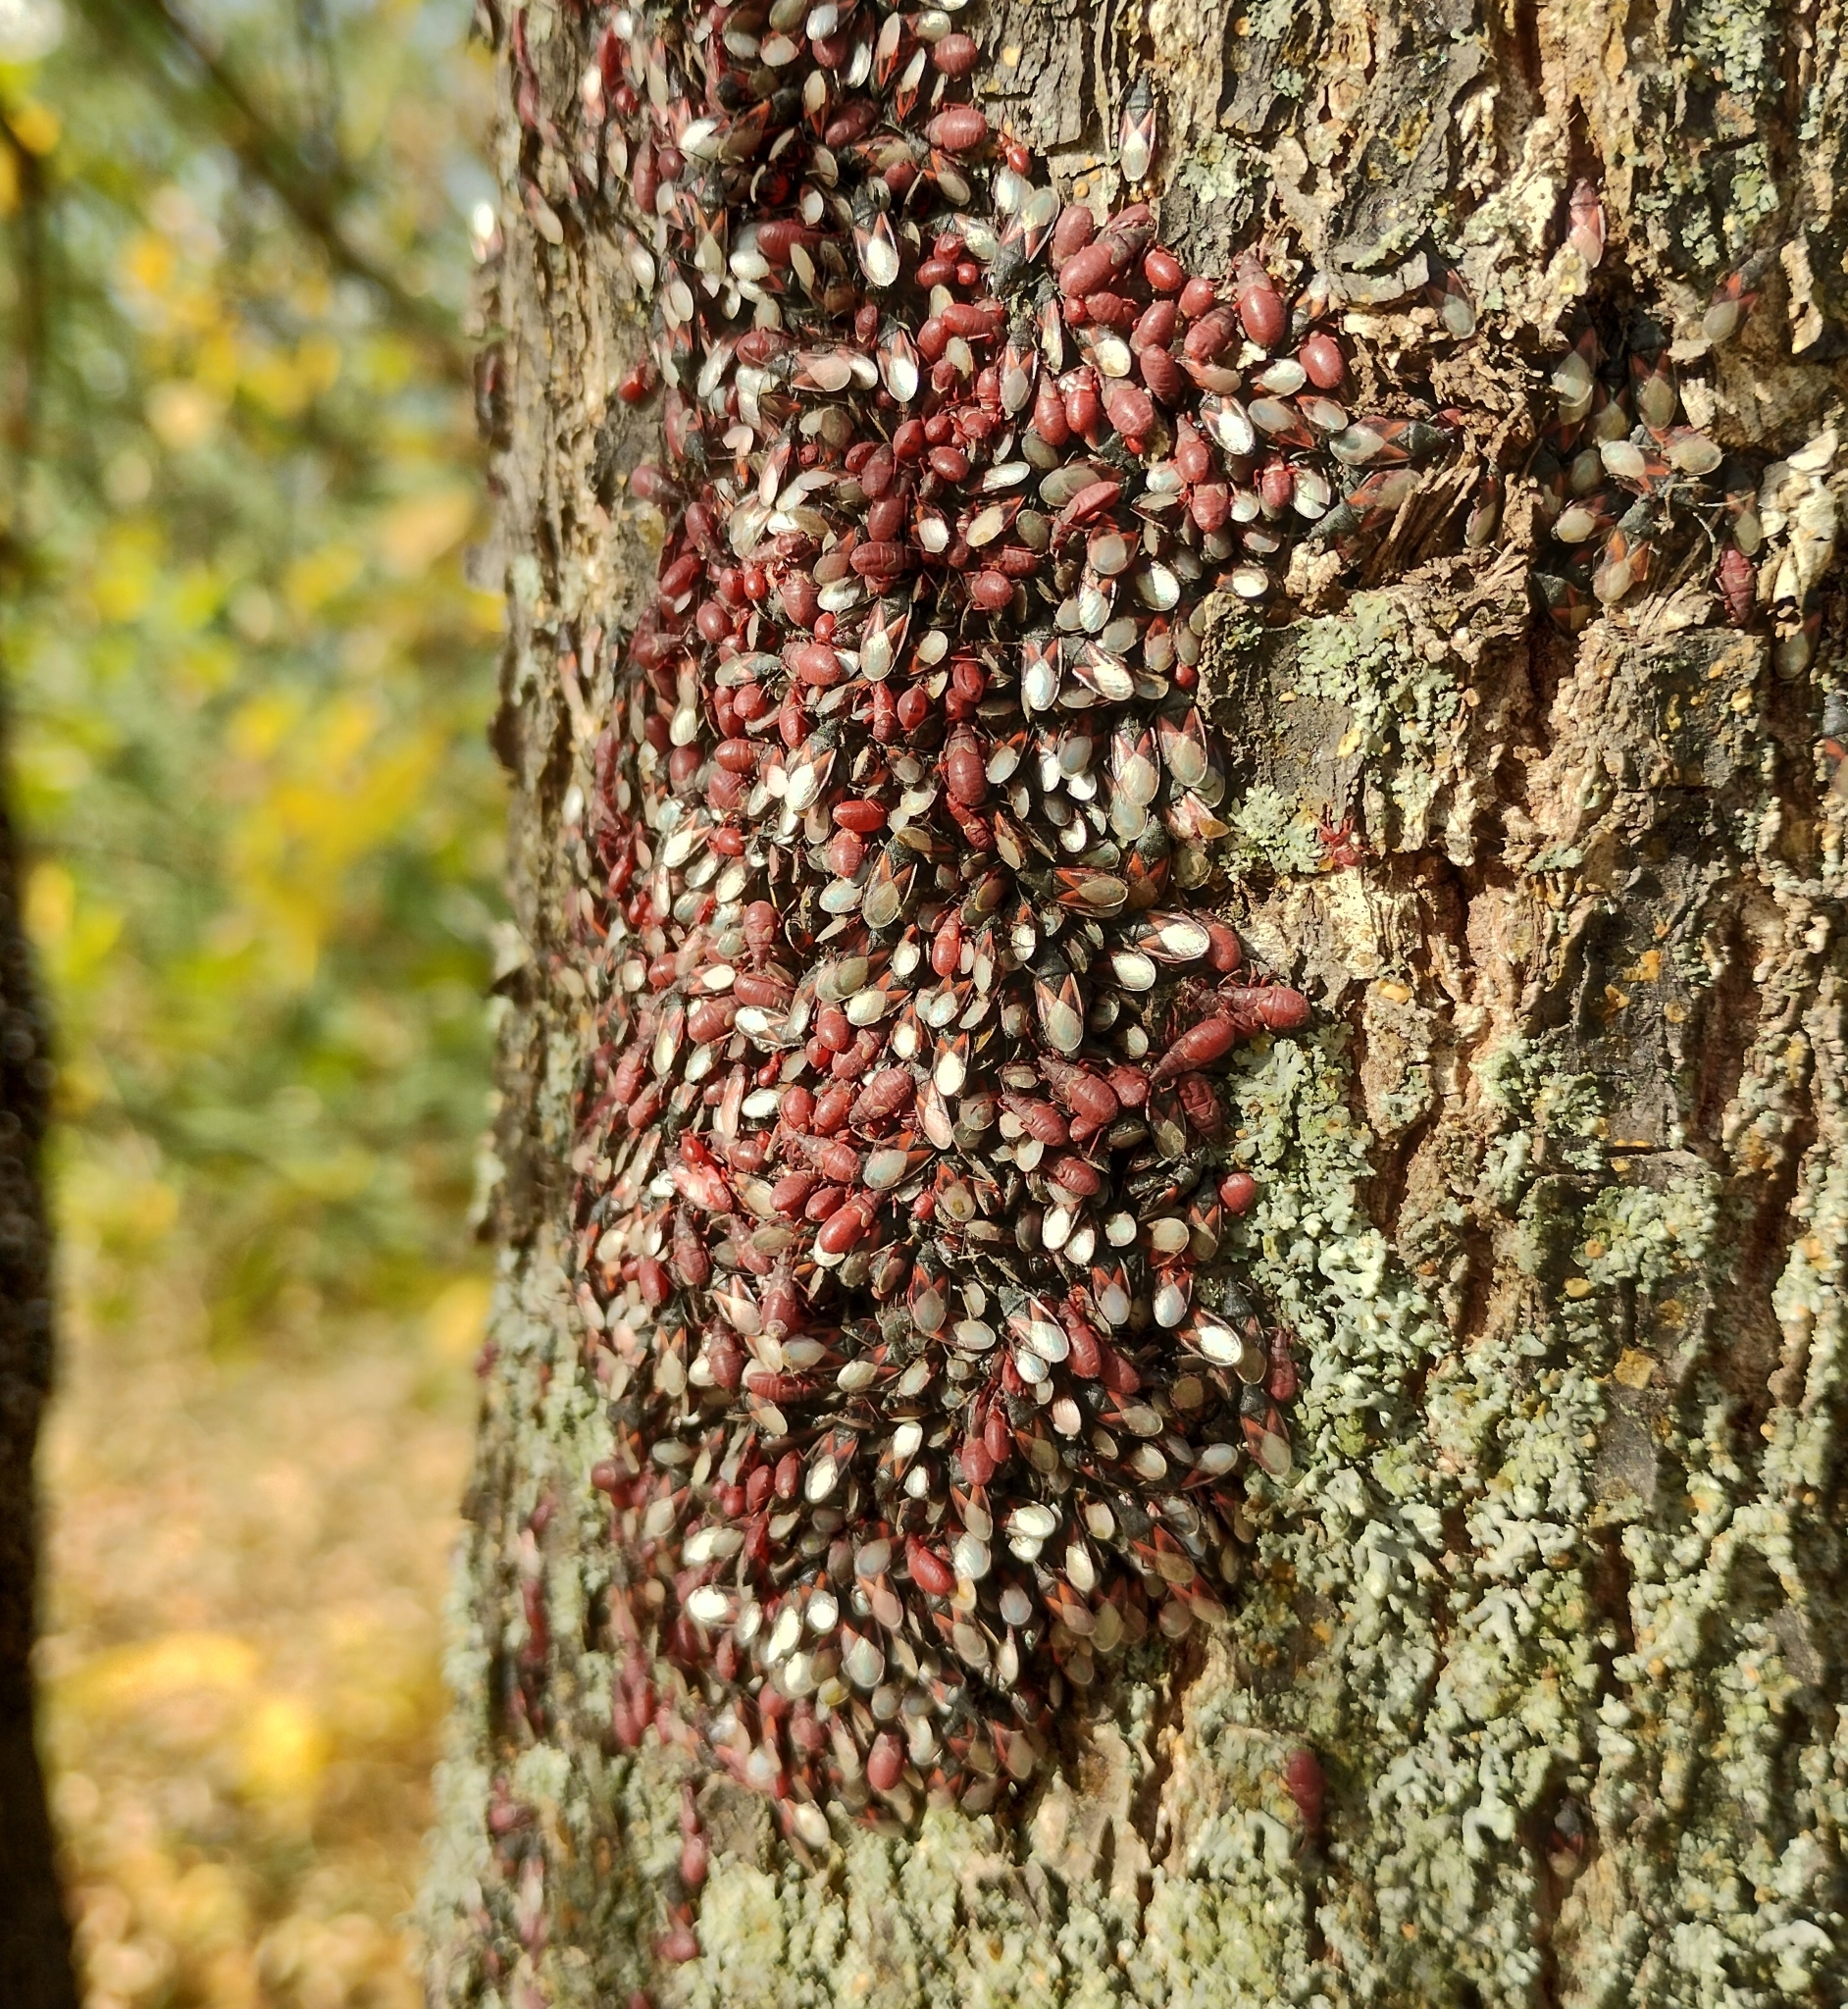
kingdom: Animalia
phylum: Arthropoda
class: Insecta
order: Hemiptera
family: Oxycarenidae
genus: Oxycarenus
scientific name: Oxycarenus lavaterae
